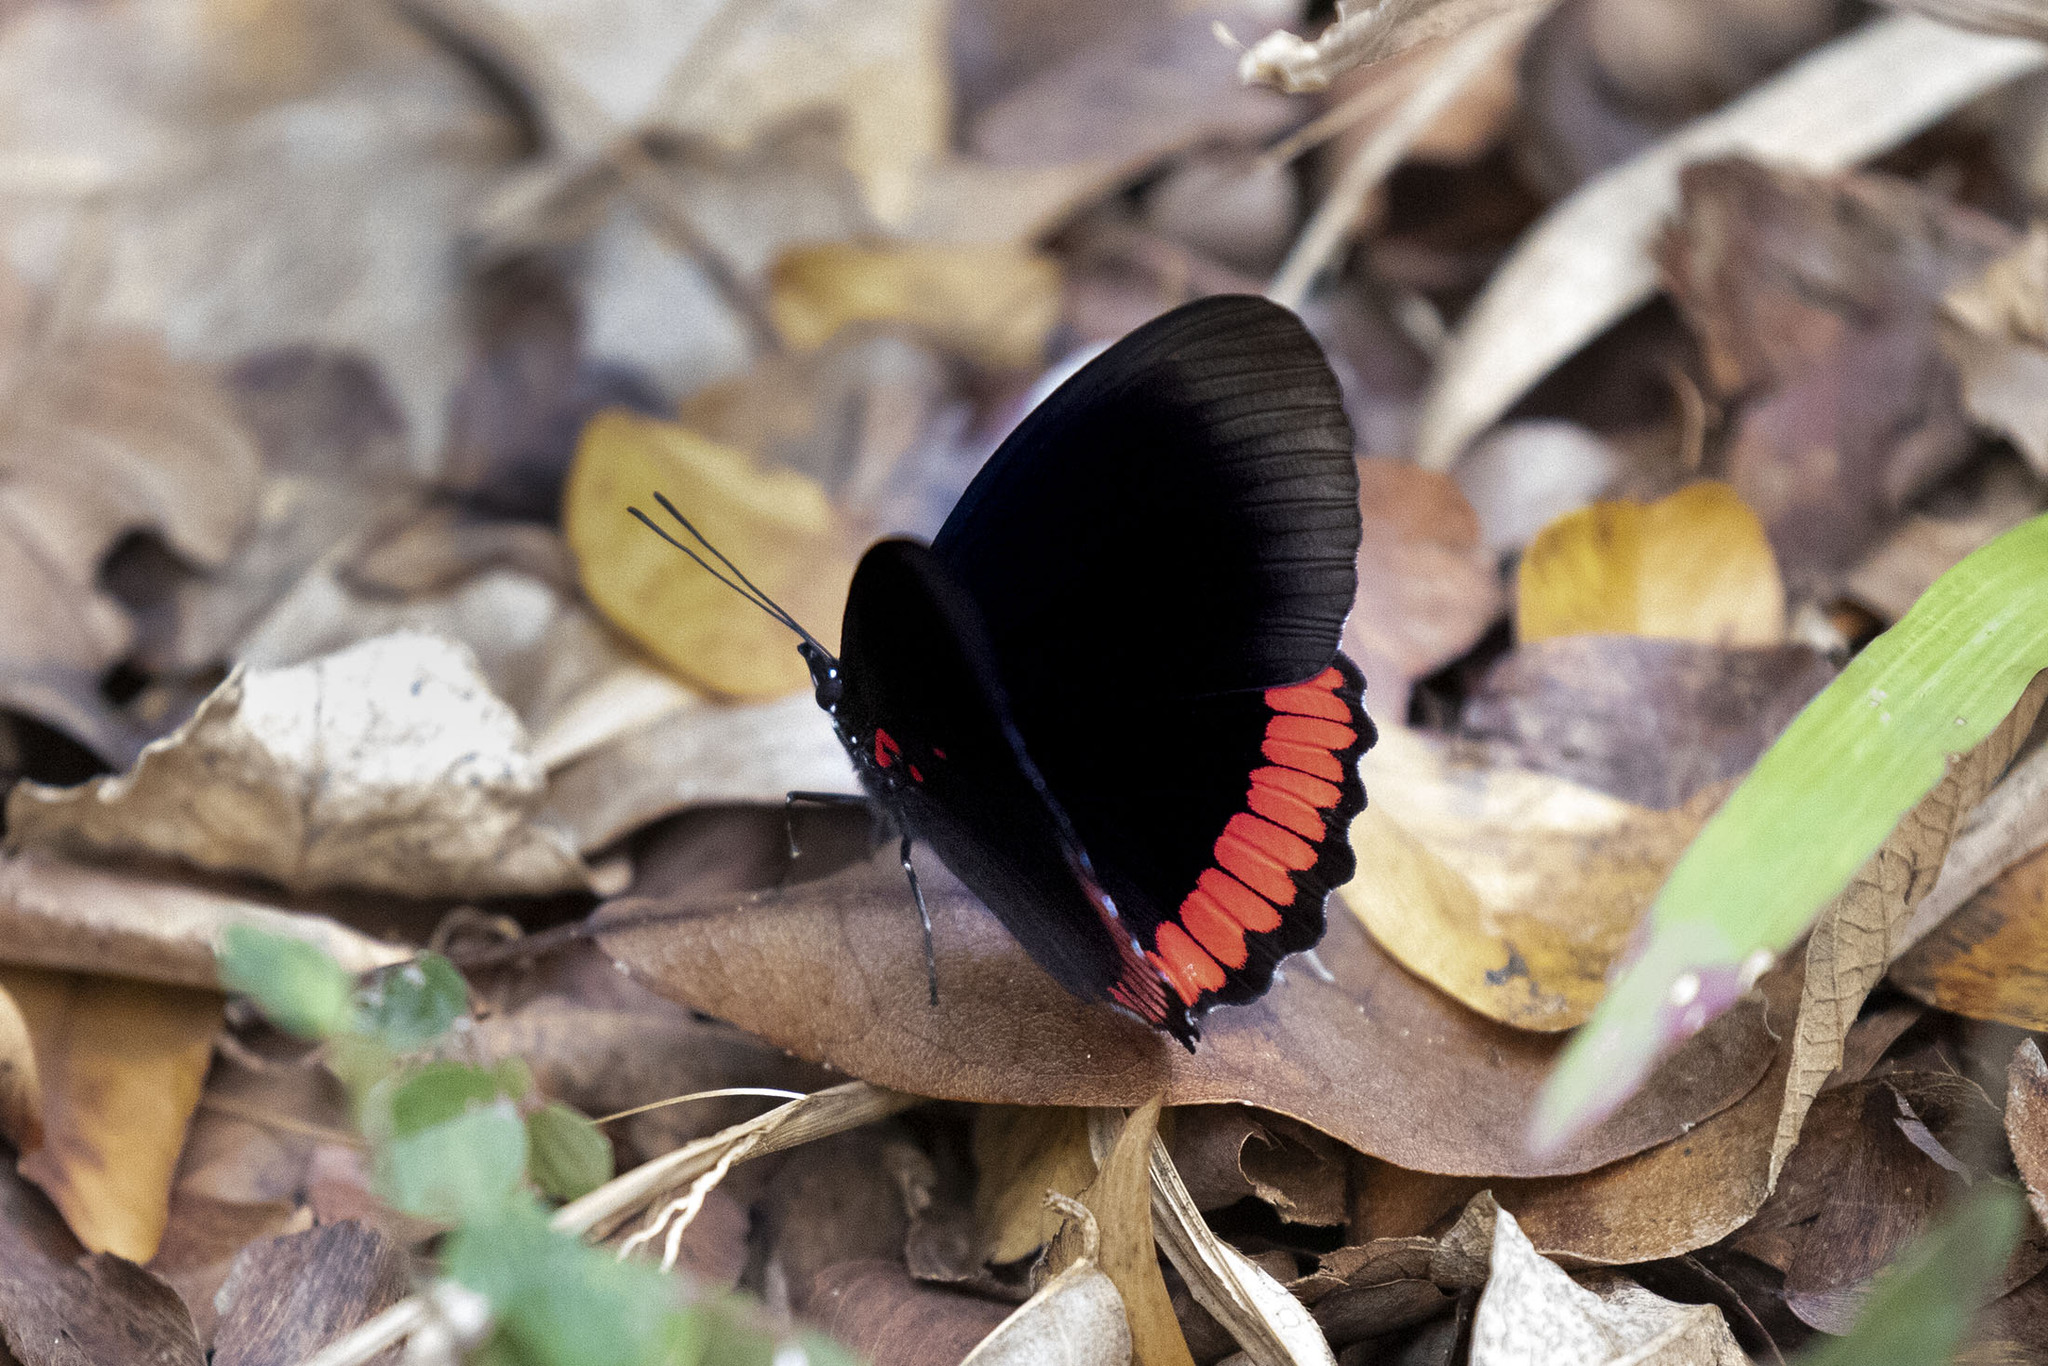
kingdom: Animalia
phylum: Arthropoda
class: Insecta
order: Lepidoptera
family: Sesiidae
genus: Sesia
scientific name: Sesia Biblis hyperia
